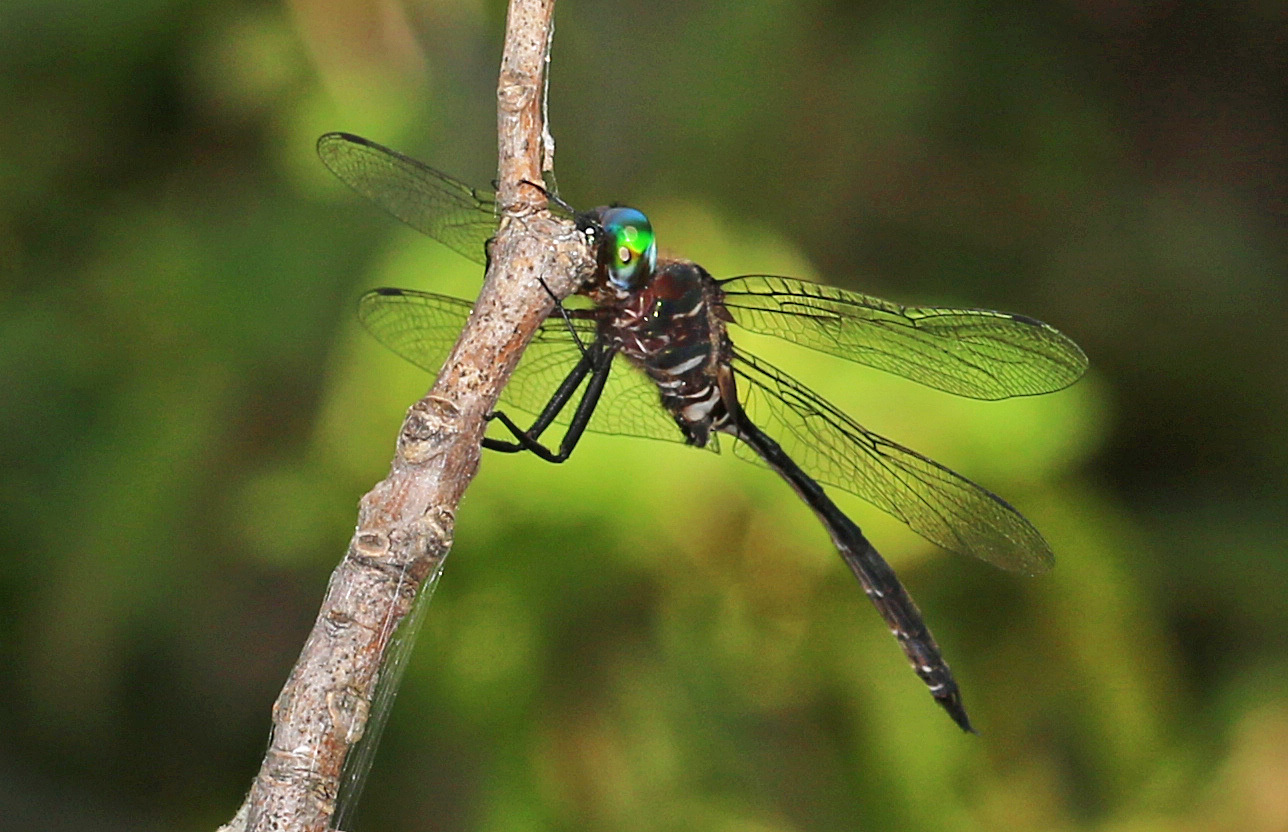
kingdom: Animalia
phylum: Arthropoda
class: Insecta
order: Odonata
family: Corduliidae
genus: Somatochlora
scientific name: Somatochlora filosa
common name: Fine-lined emerald
